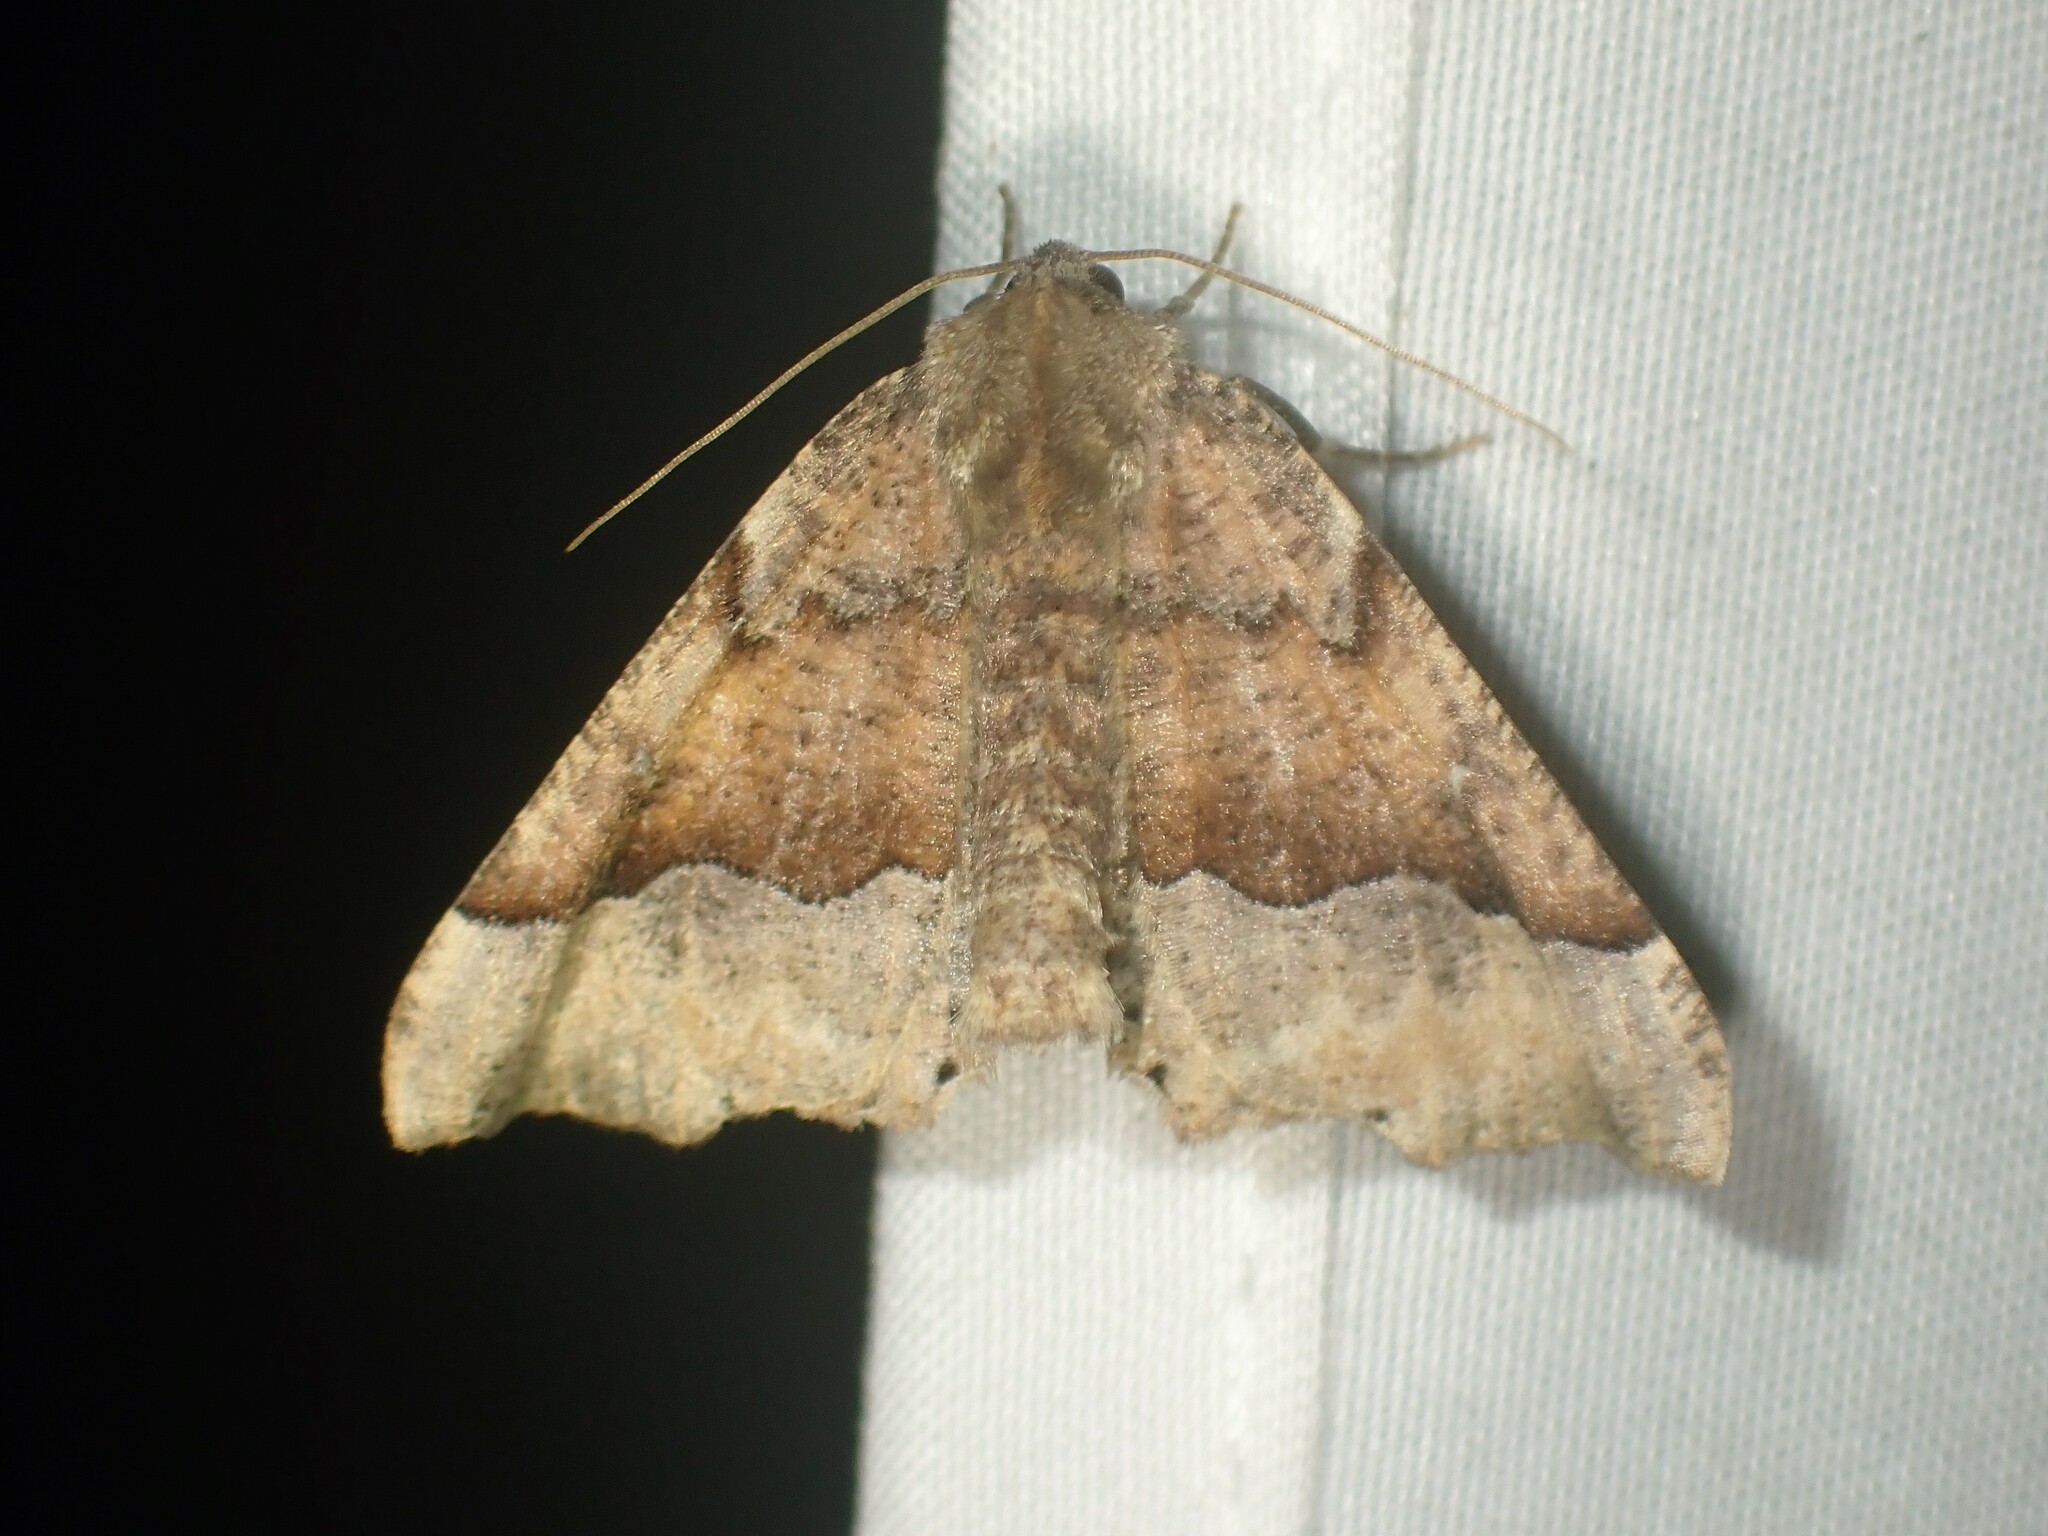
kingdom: Animalia
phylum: Arthropoda
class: Insecta
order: Lepidoptera
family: Geometridae
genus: Pero
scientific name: Pero morrisonaria
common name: Morrison's pero
